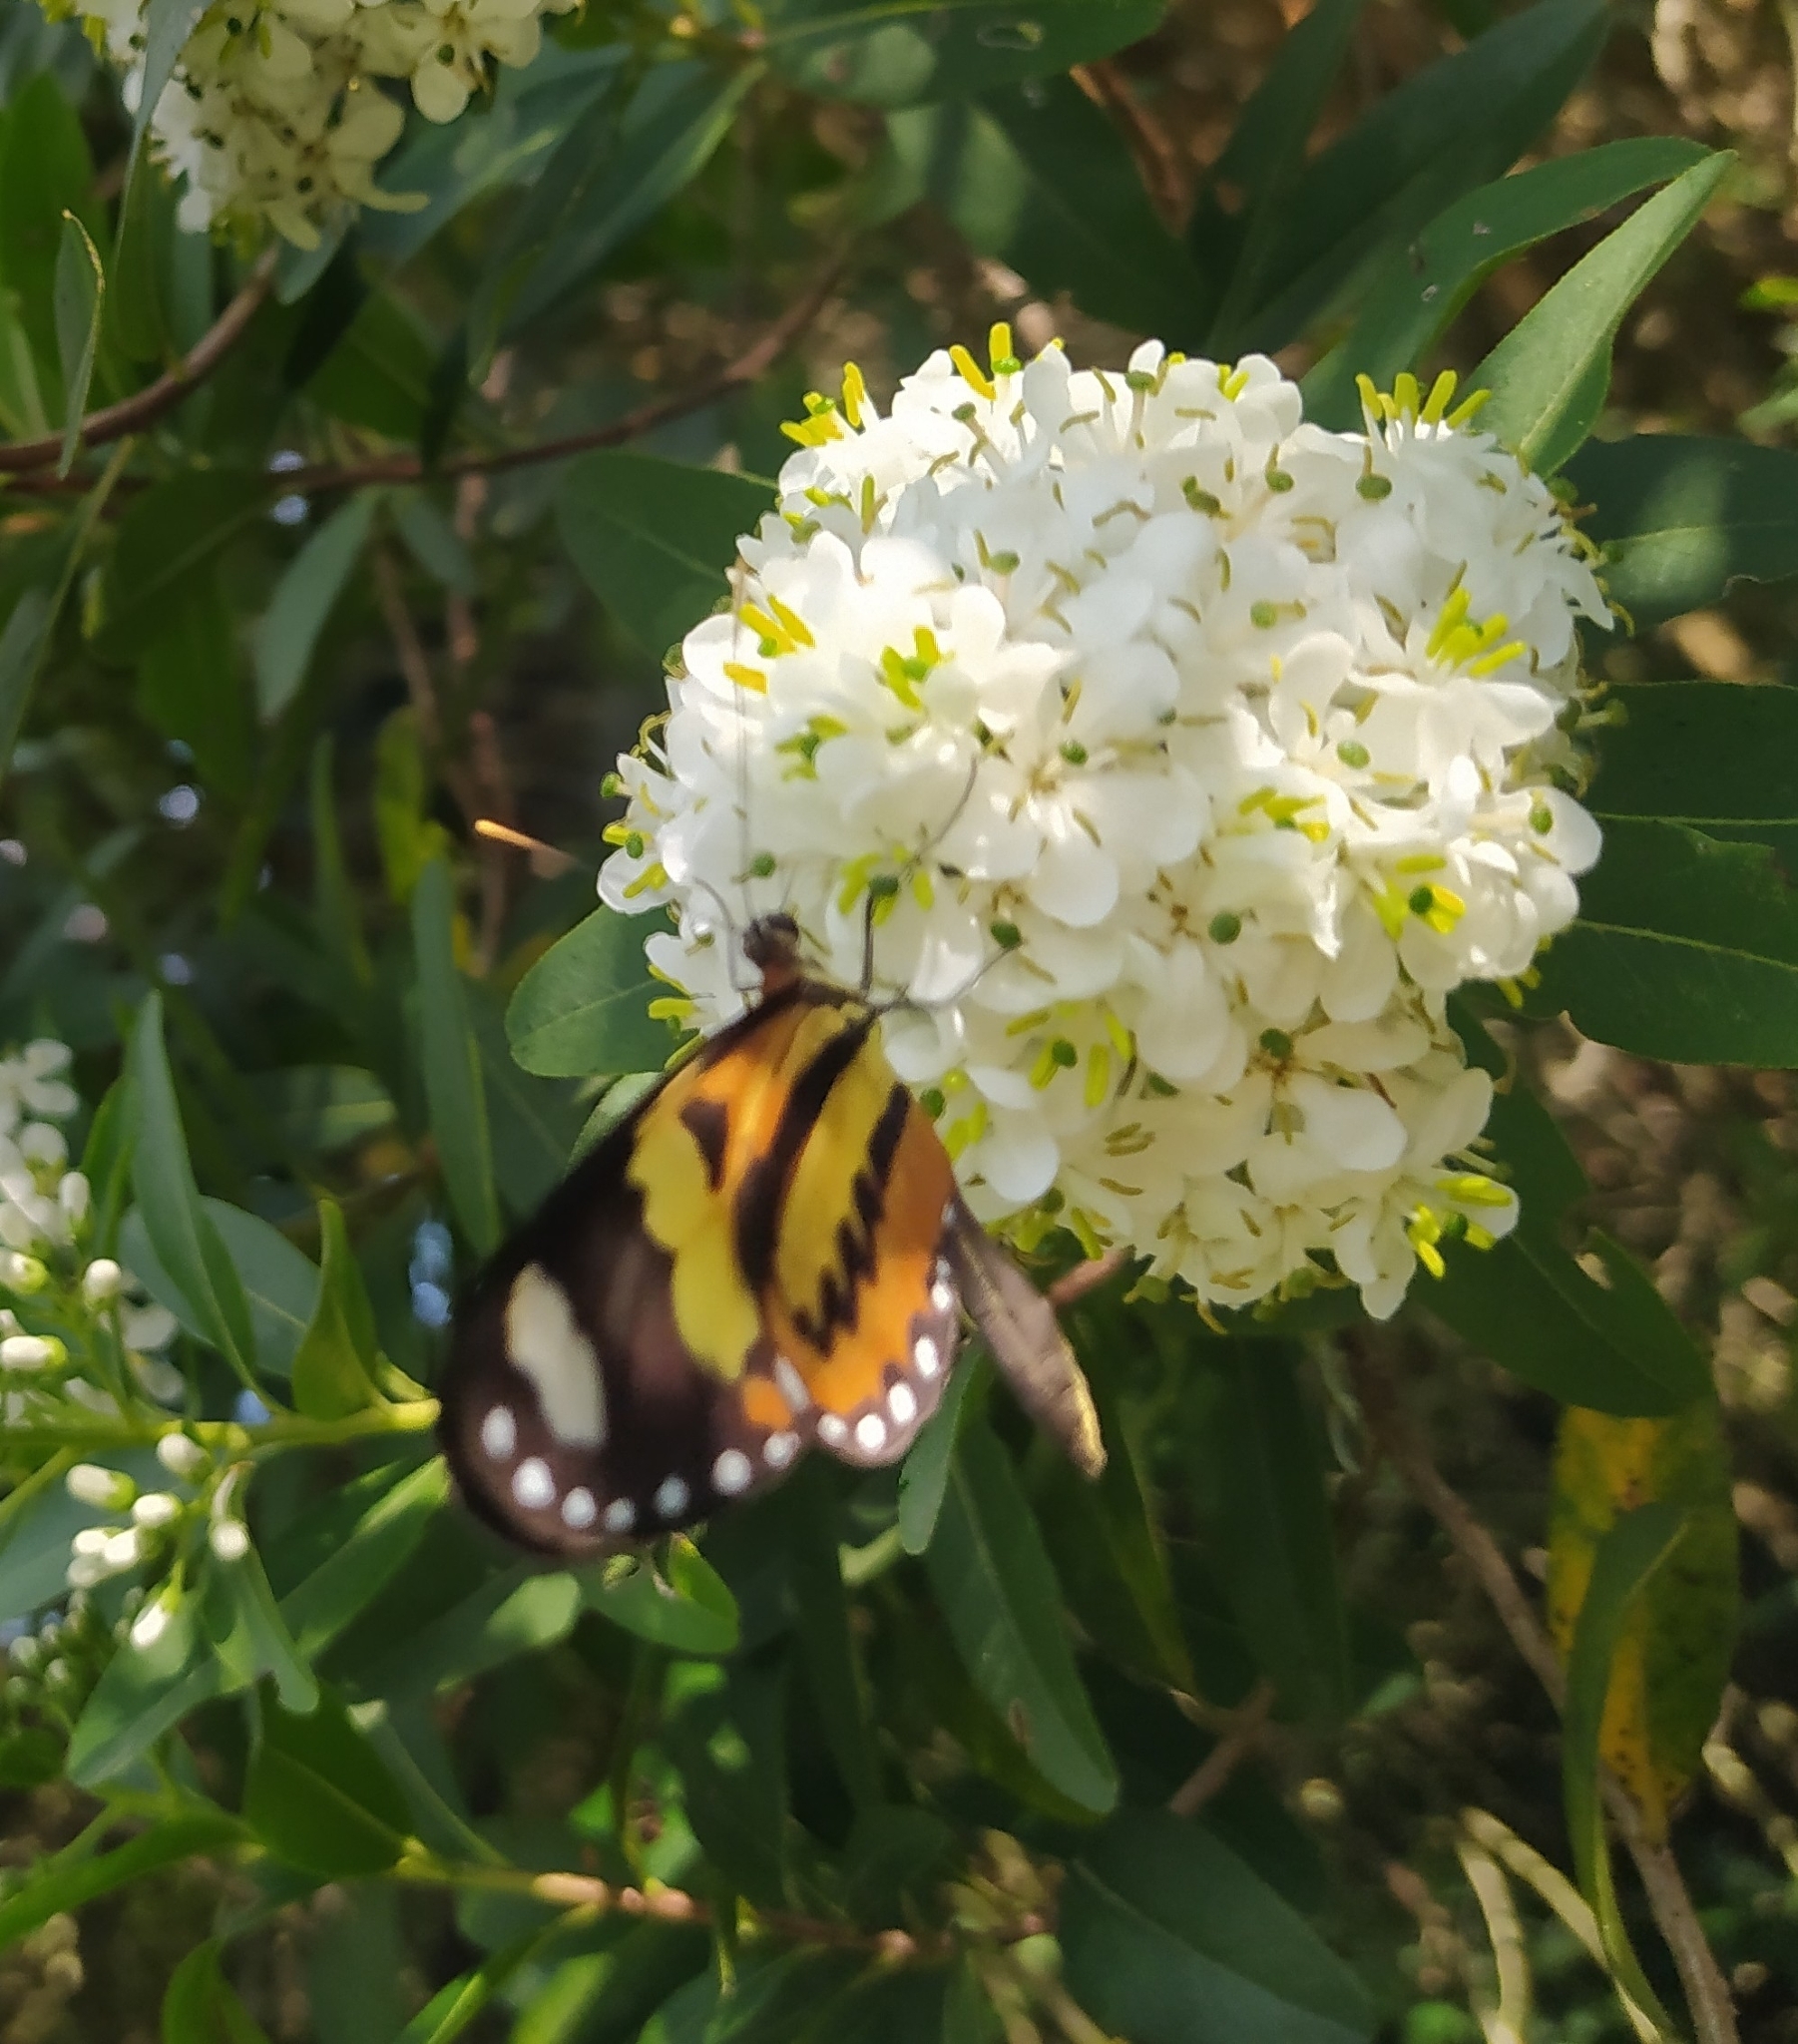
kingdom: Animalia
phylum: Arthropoda
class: Insecta
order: Lepidoptera
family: Nymphalidae
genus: Mechanitis
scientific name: Mechanitis lysimnia
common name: Lysimnia tigerwing
